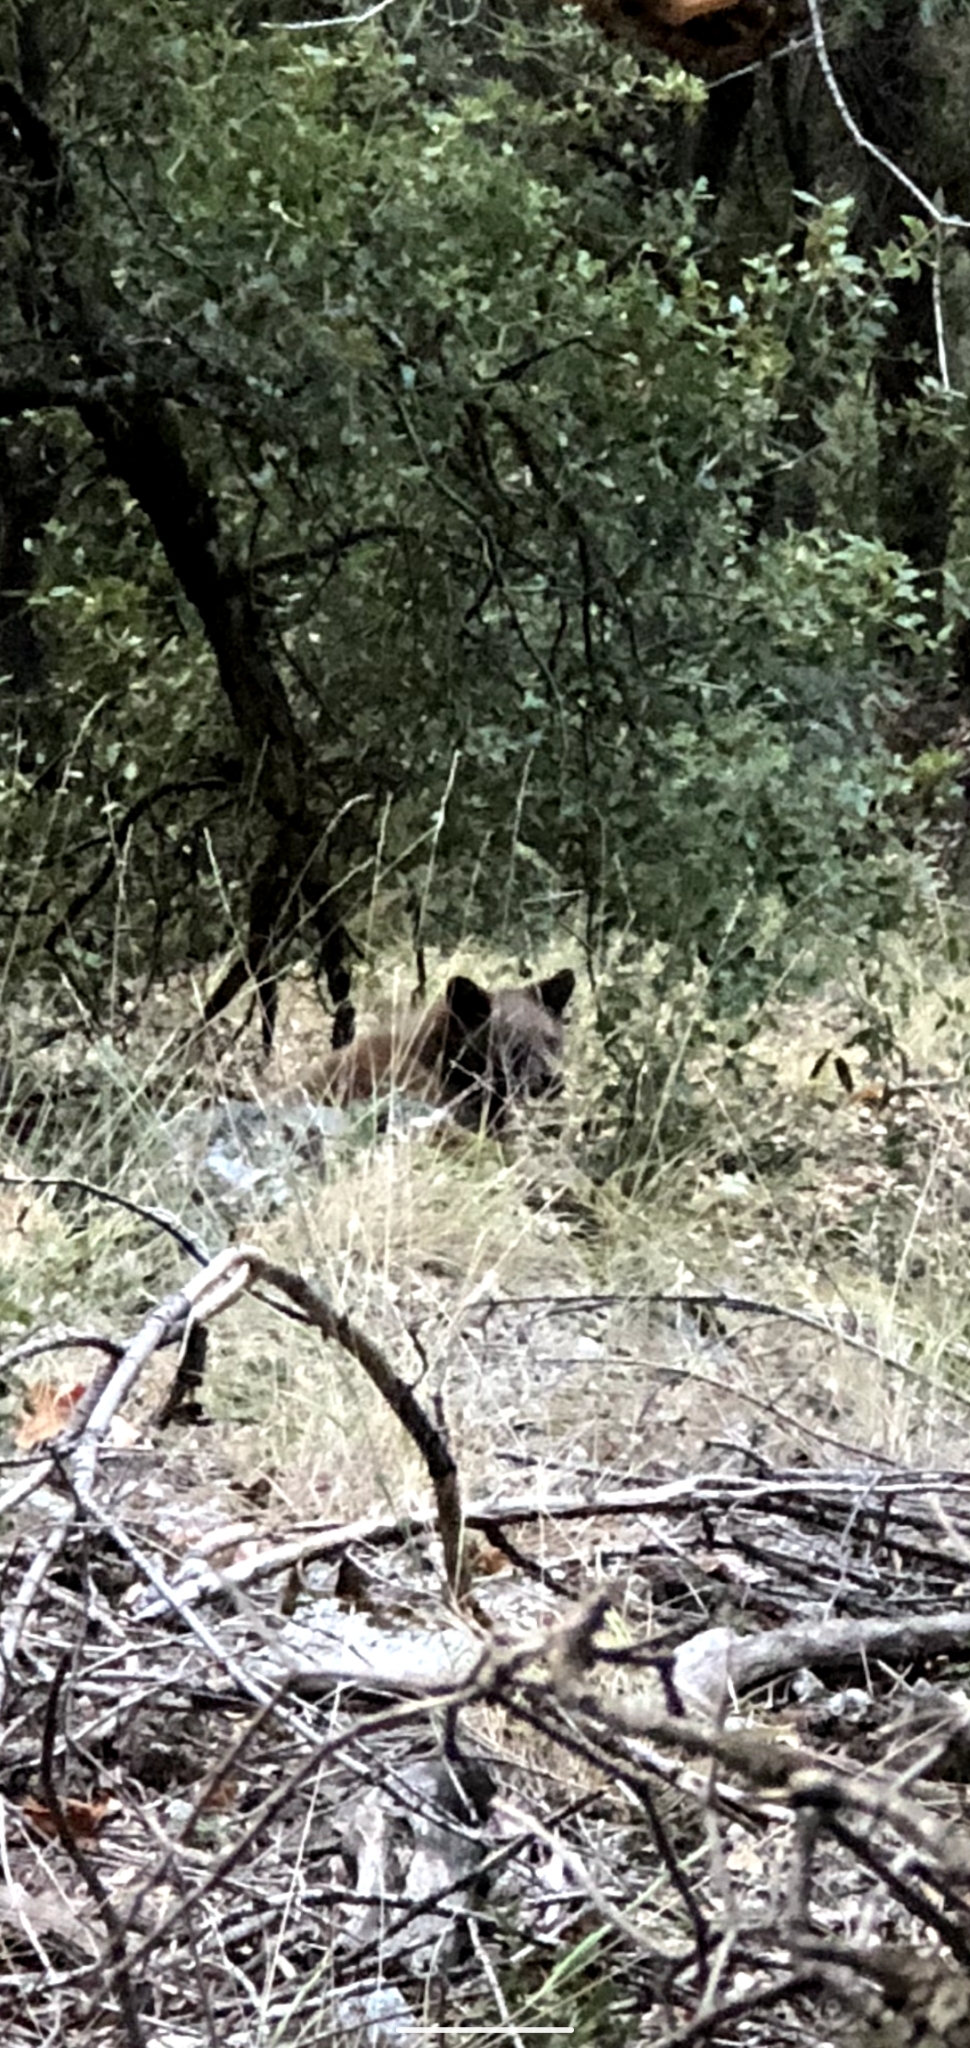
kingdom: Animalia
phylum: Chordata
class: Mammalia
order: Carnivora
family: Ursidae
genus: Ursus
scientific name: Ursus americanus
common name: American black bear
